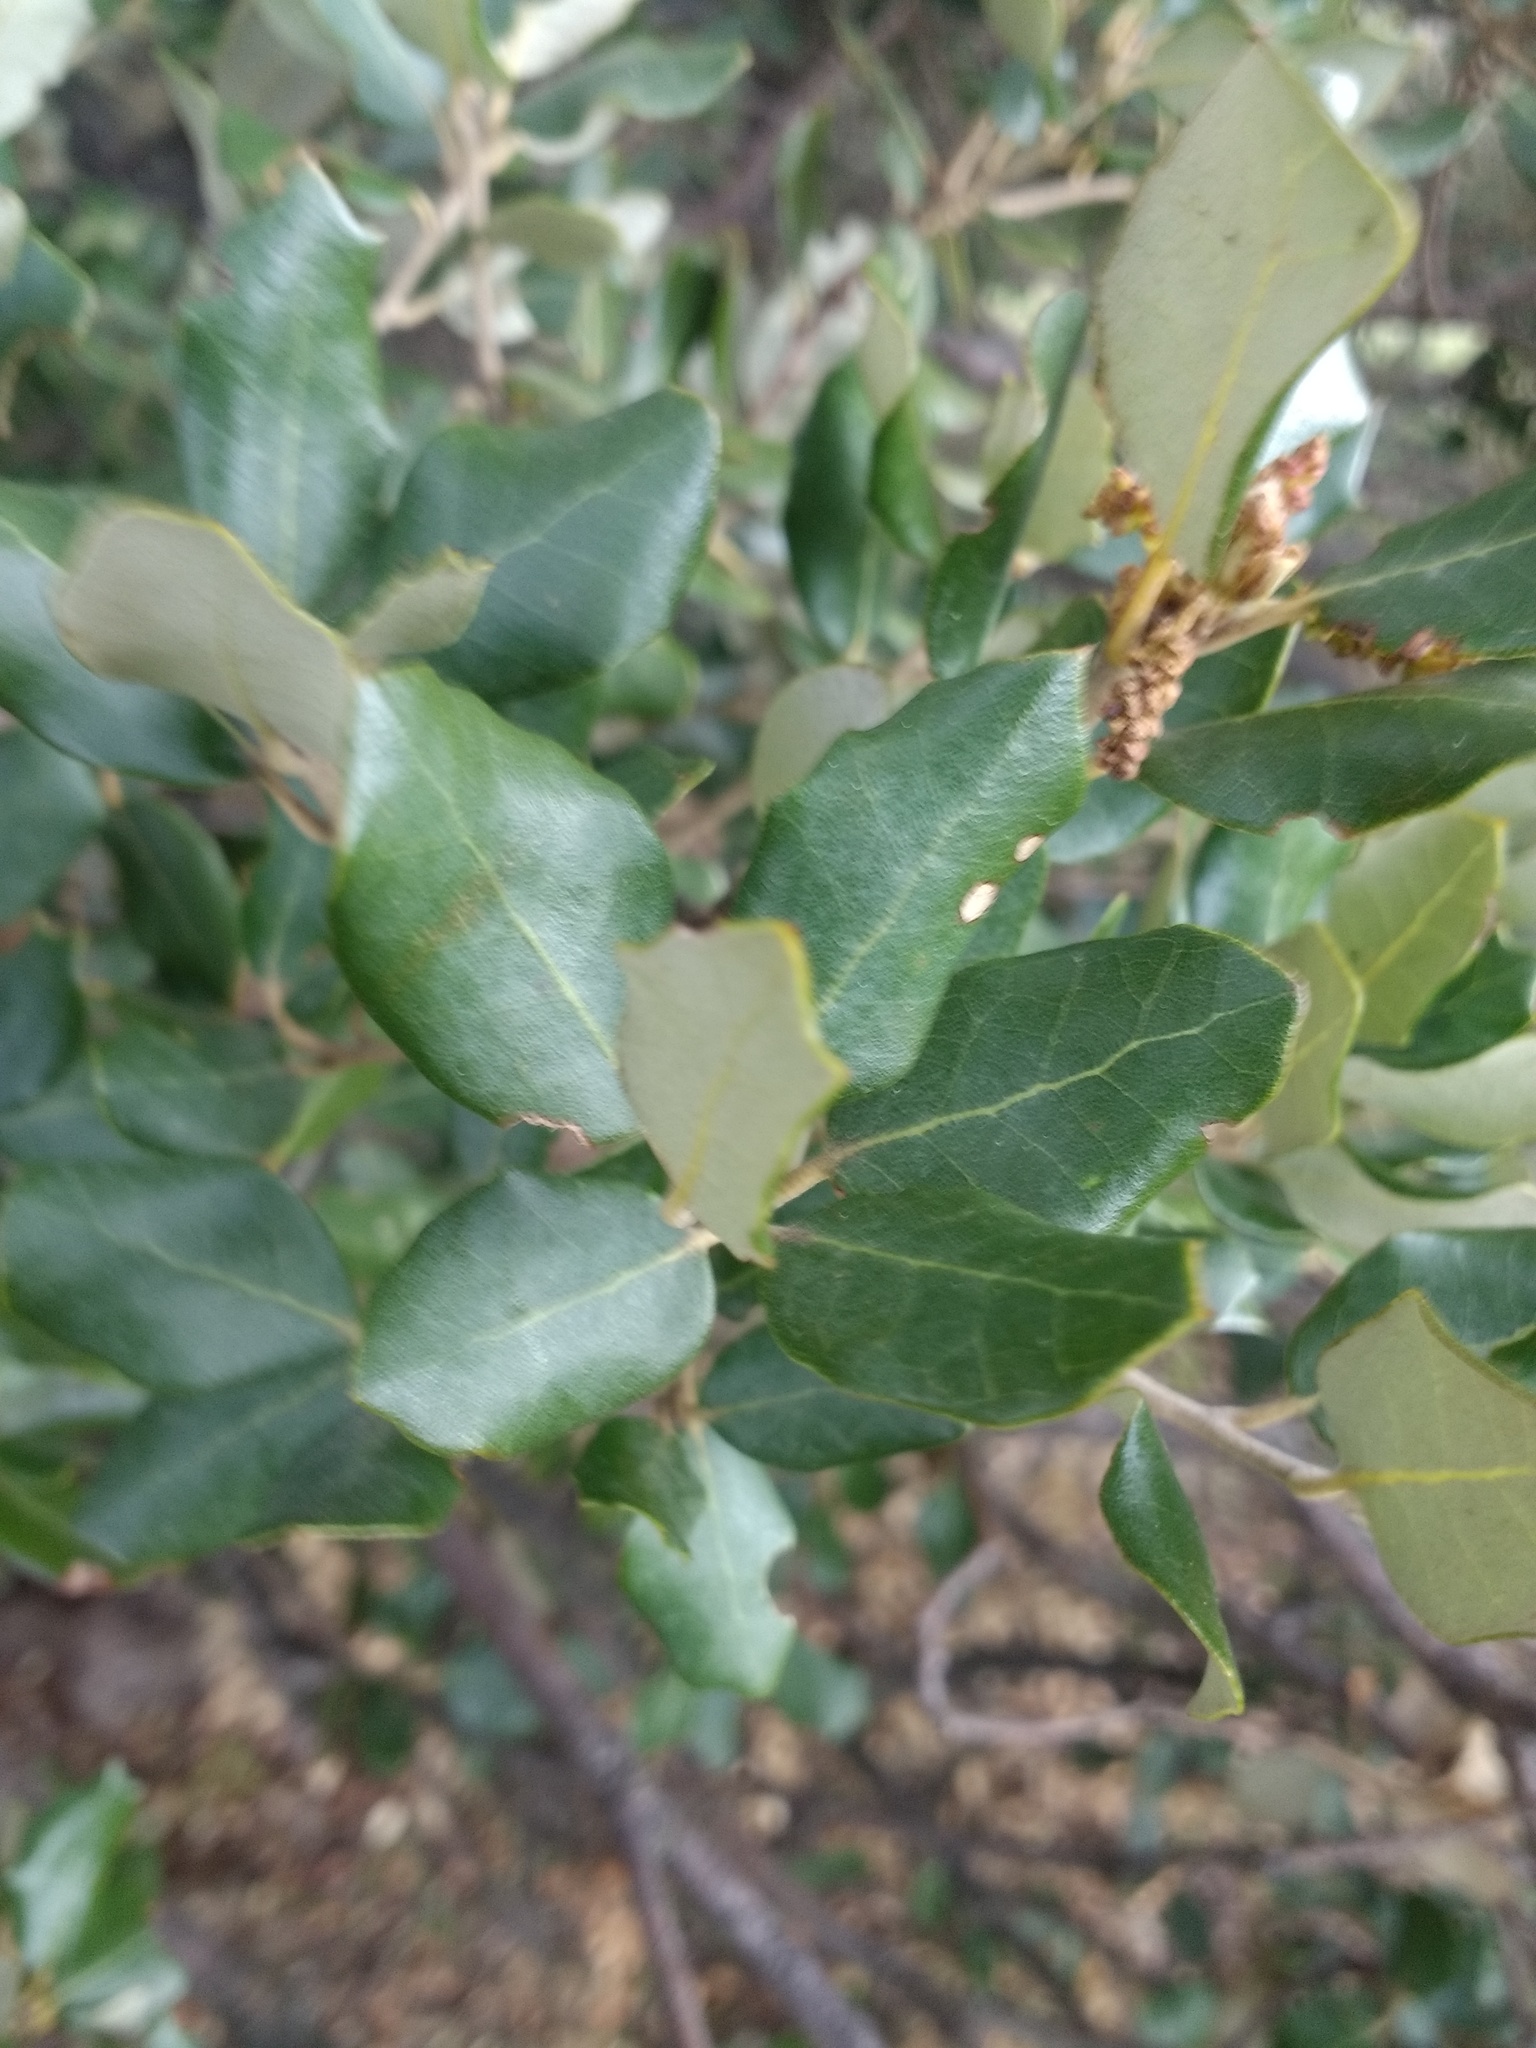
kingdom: Plantae
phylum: Tracheophyta
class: Magnoliopsida
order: Fagales
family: Fagaceae
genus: Quercus
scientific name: Quercus rotundifolia
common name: Holm oak
